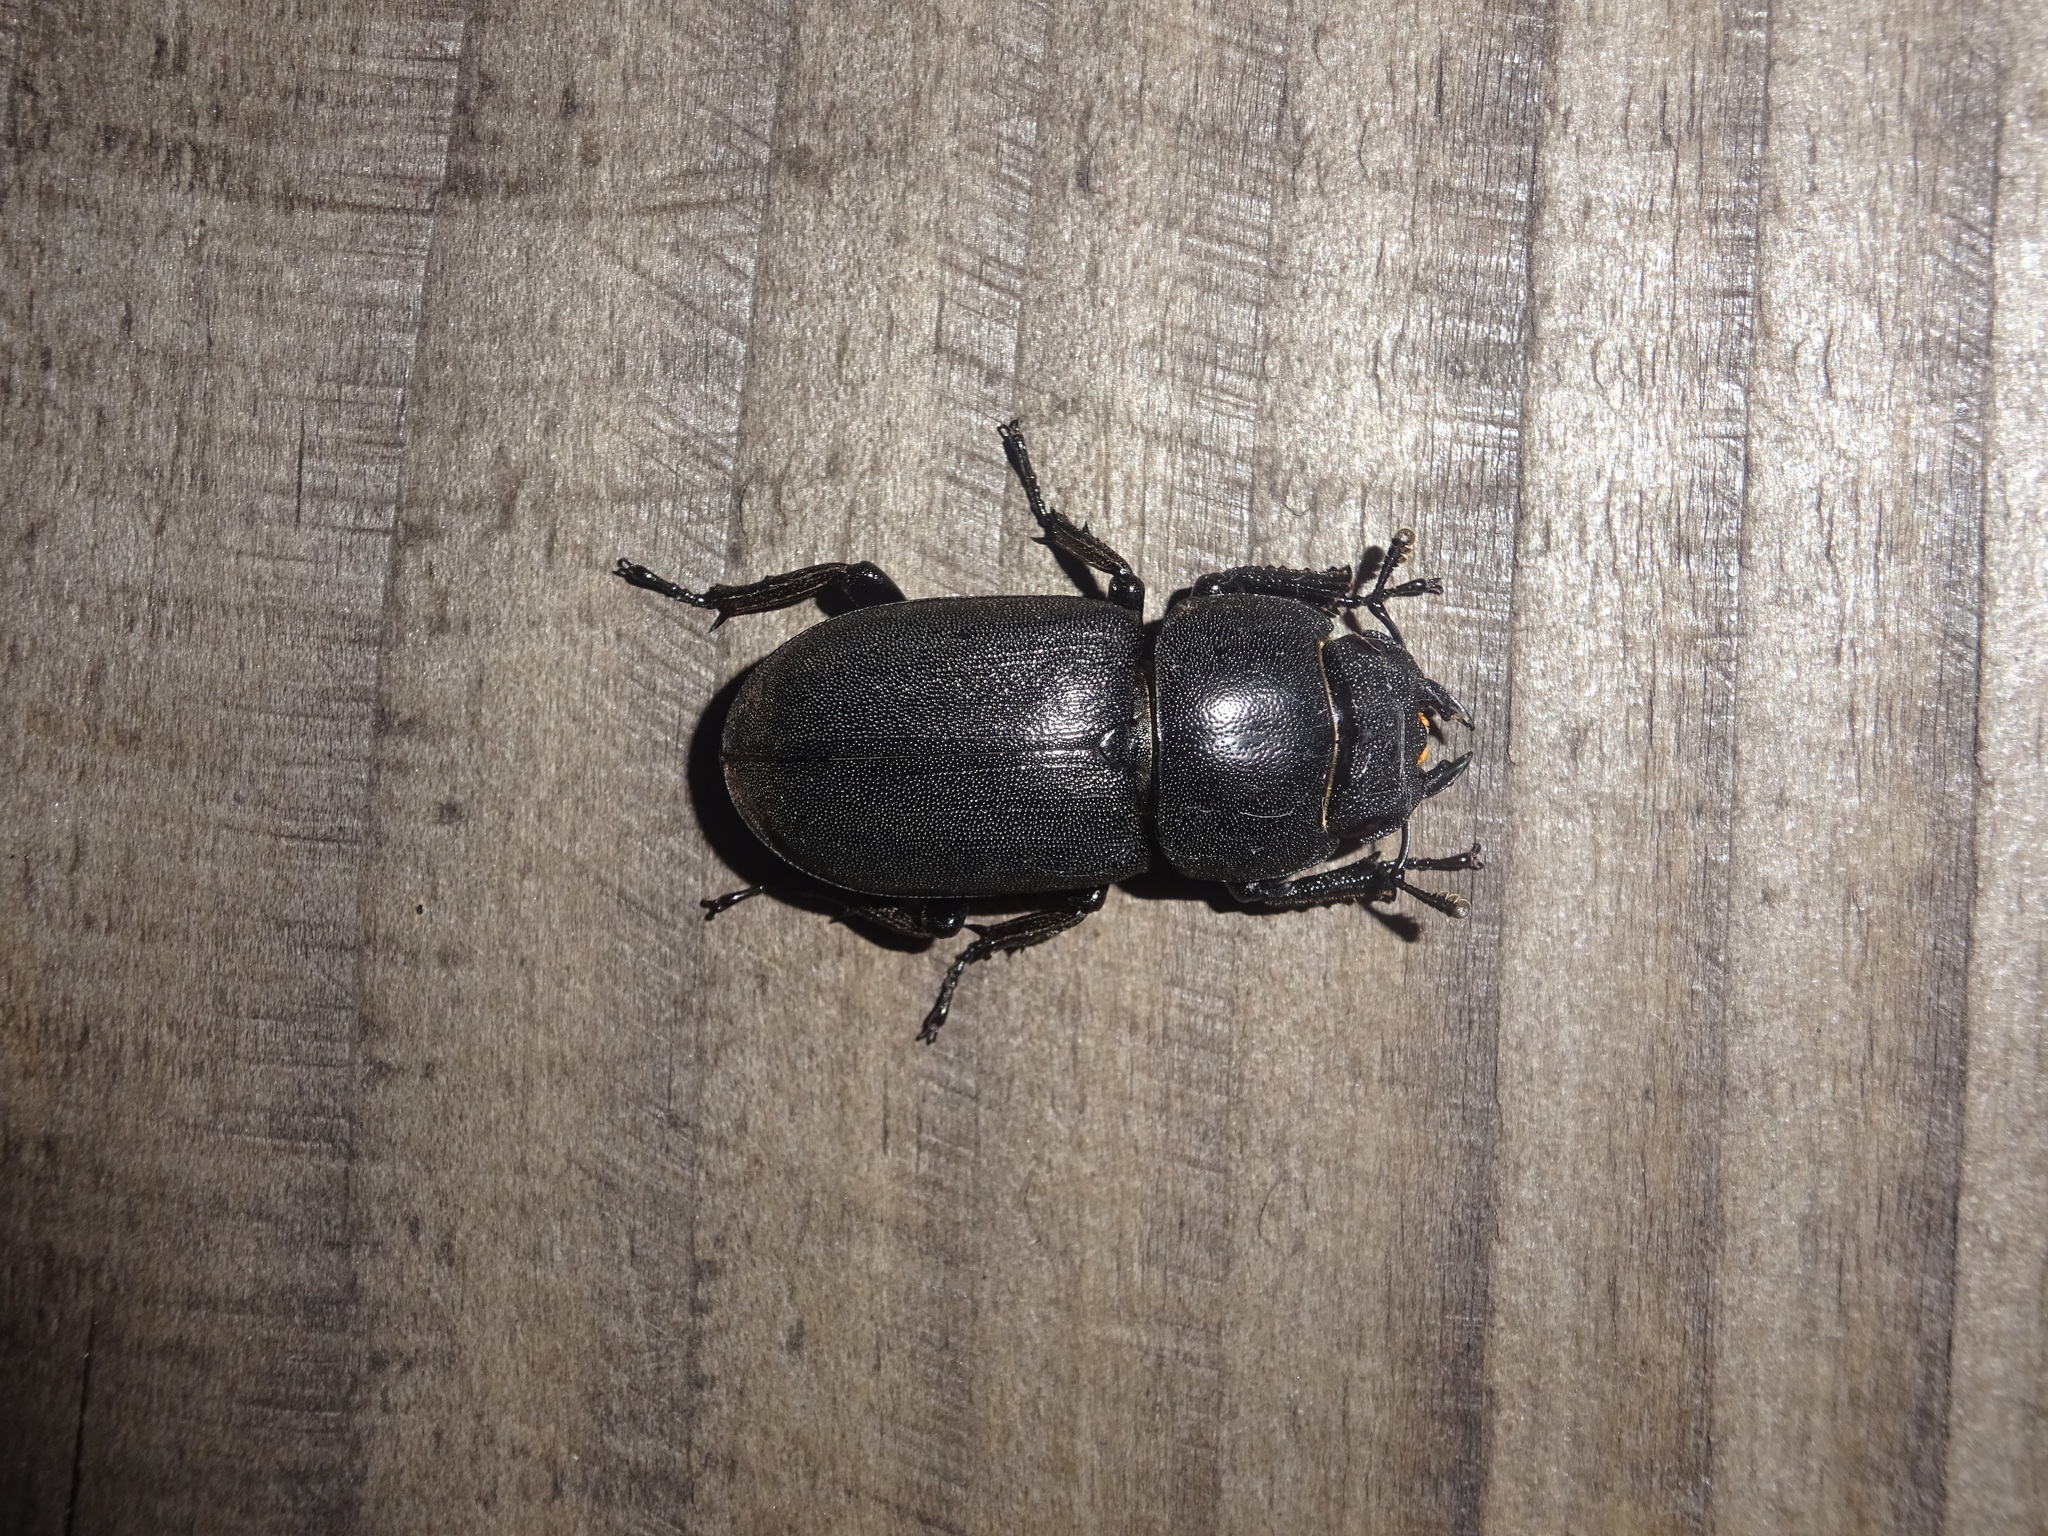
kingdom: Animalia
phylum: Arthropoda
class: Insecta
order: Coleoptera
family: Lucanidae
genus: Dorcus
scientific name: Dorcus parallelipipedus
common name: Lesser stag beetle
